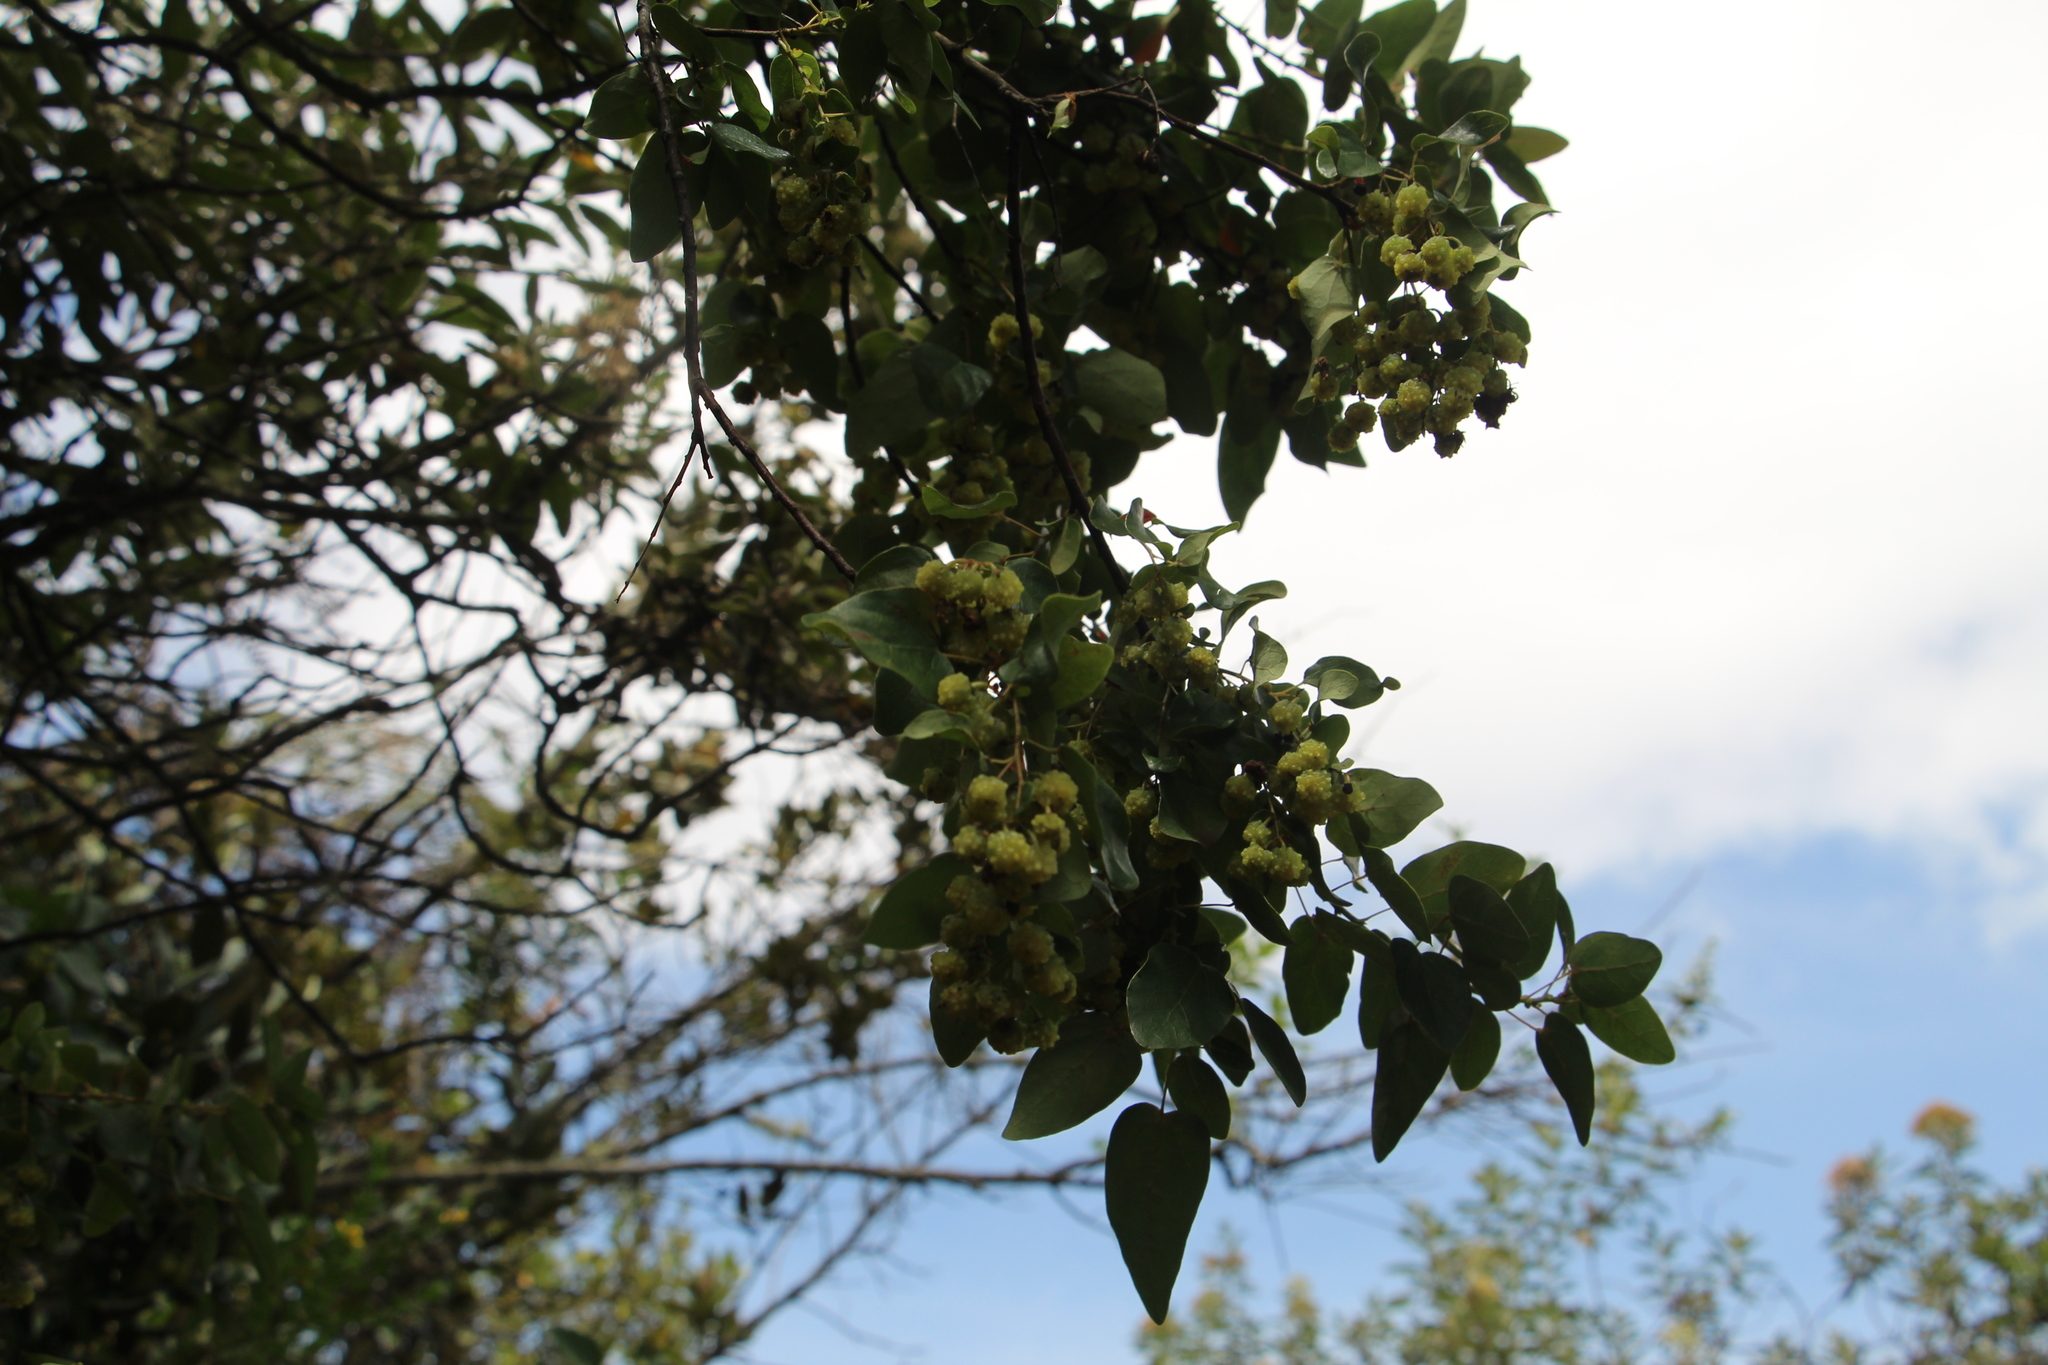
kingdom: Plantae
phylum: Tracheophyta
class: Magnoliopsida
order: Oxalidales
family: Elaeocarpaceae
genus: Vallea
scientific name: Vallea stipularis
